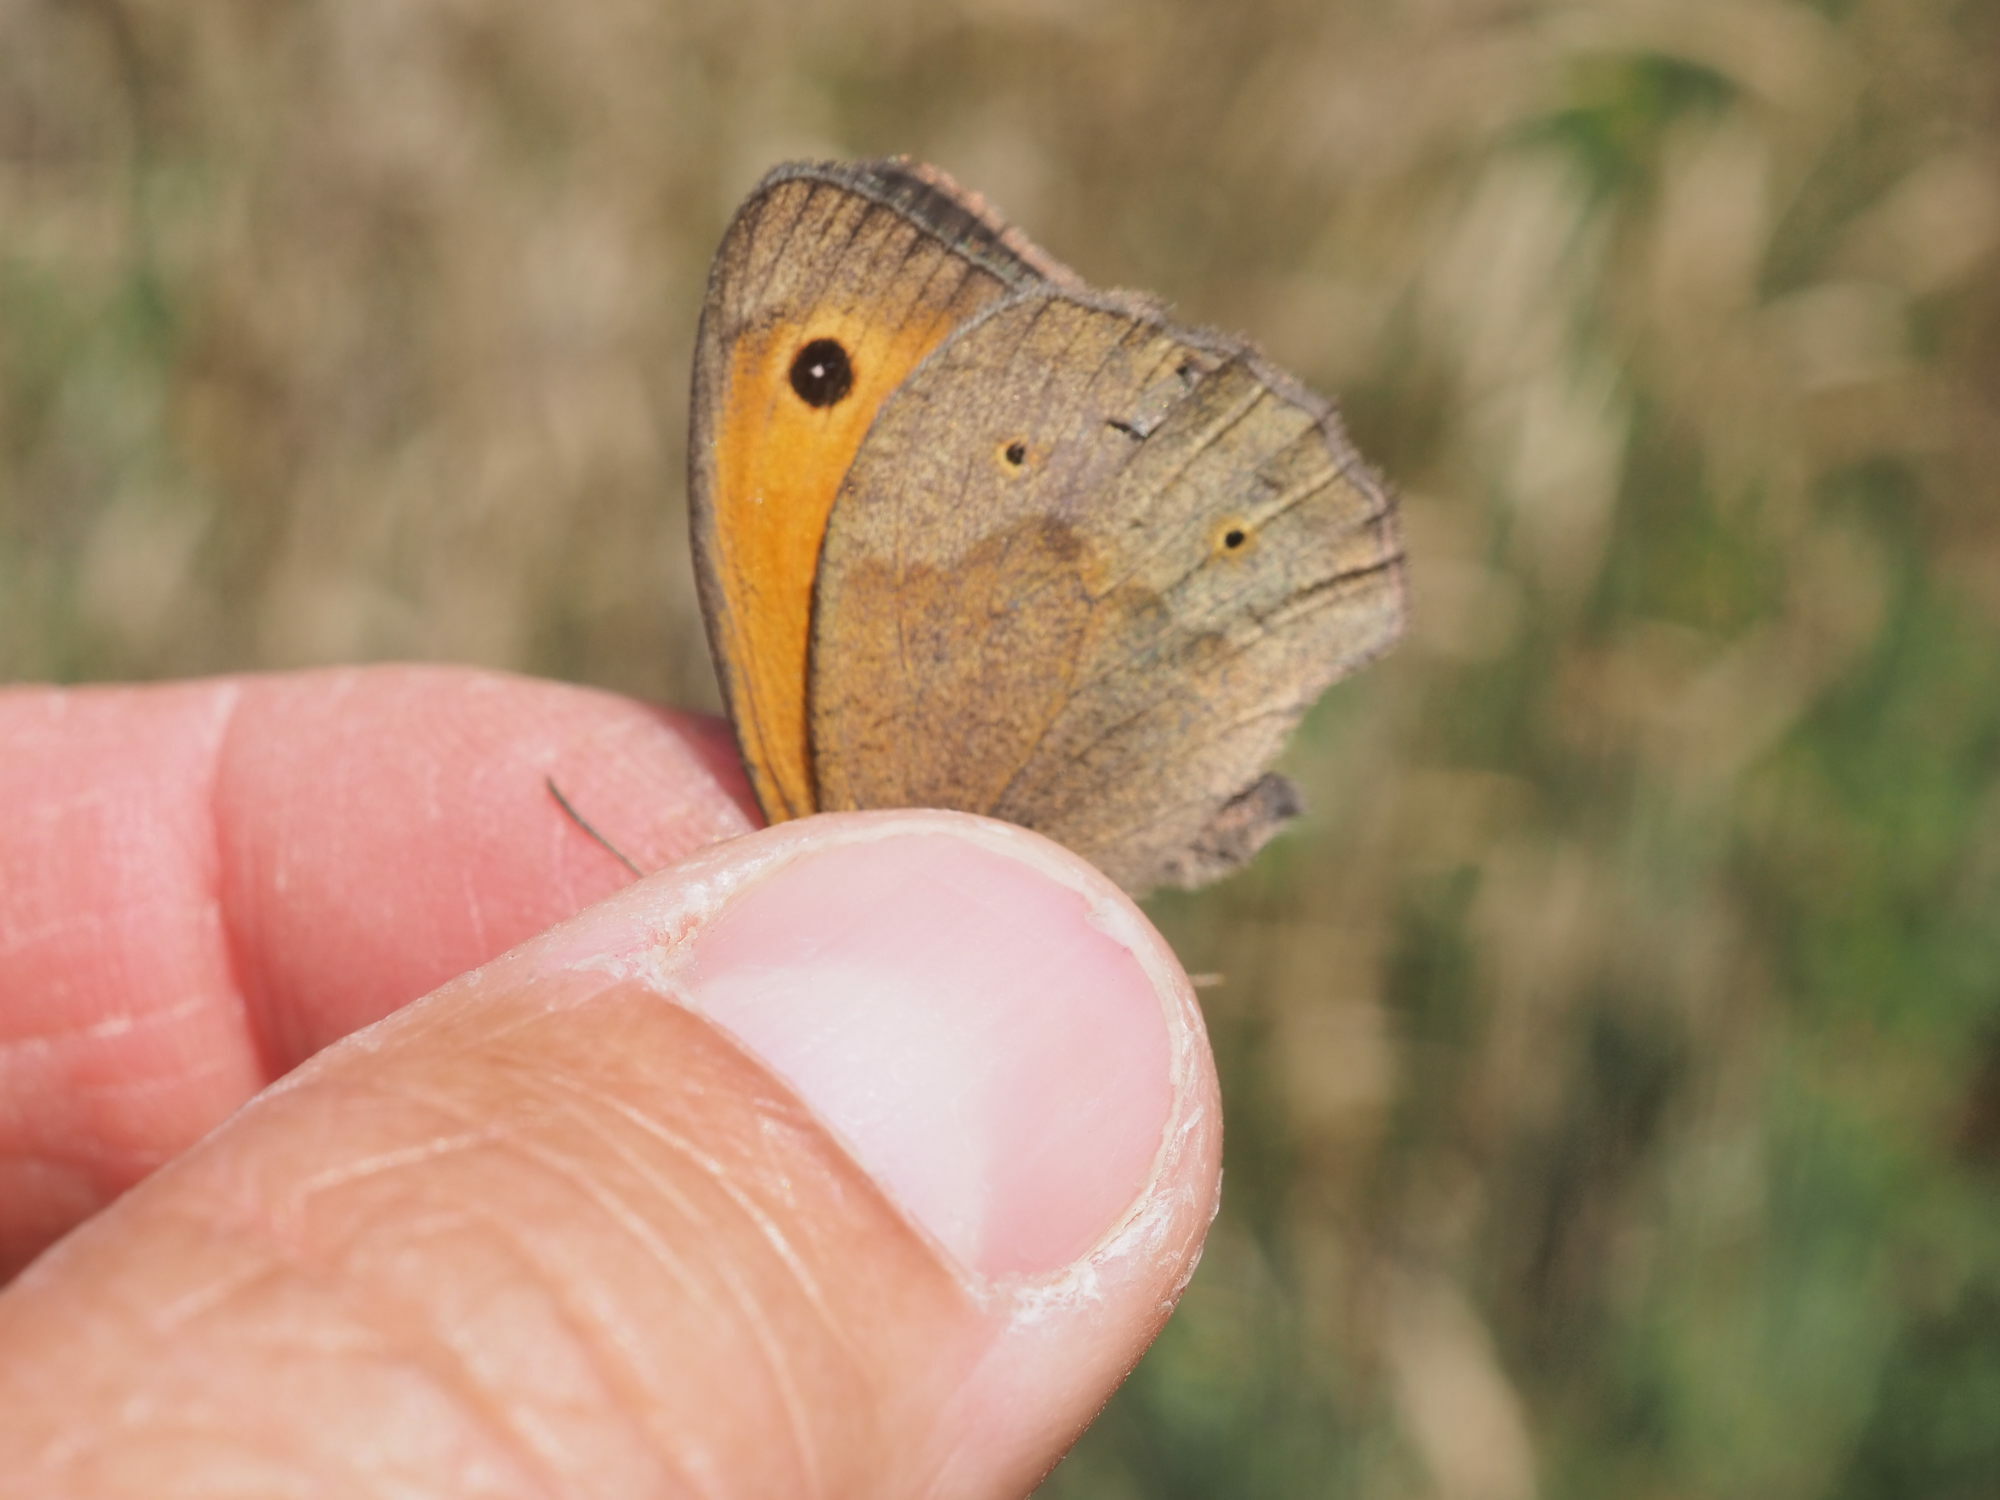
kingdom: Animalia
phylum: Arthropoda
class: Insecta
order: Lepidoptera
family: Nymphalidae
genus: Maniola
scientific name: Maniola jurtina
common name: Meadow brown
